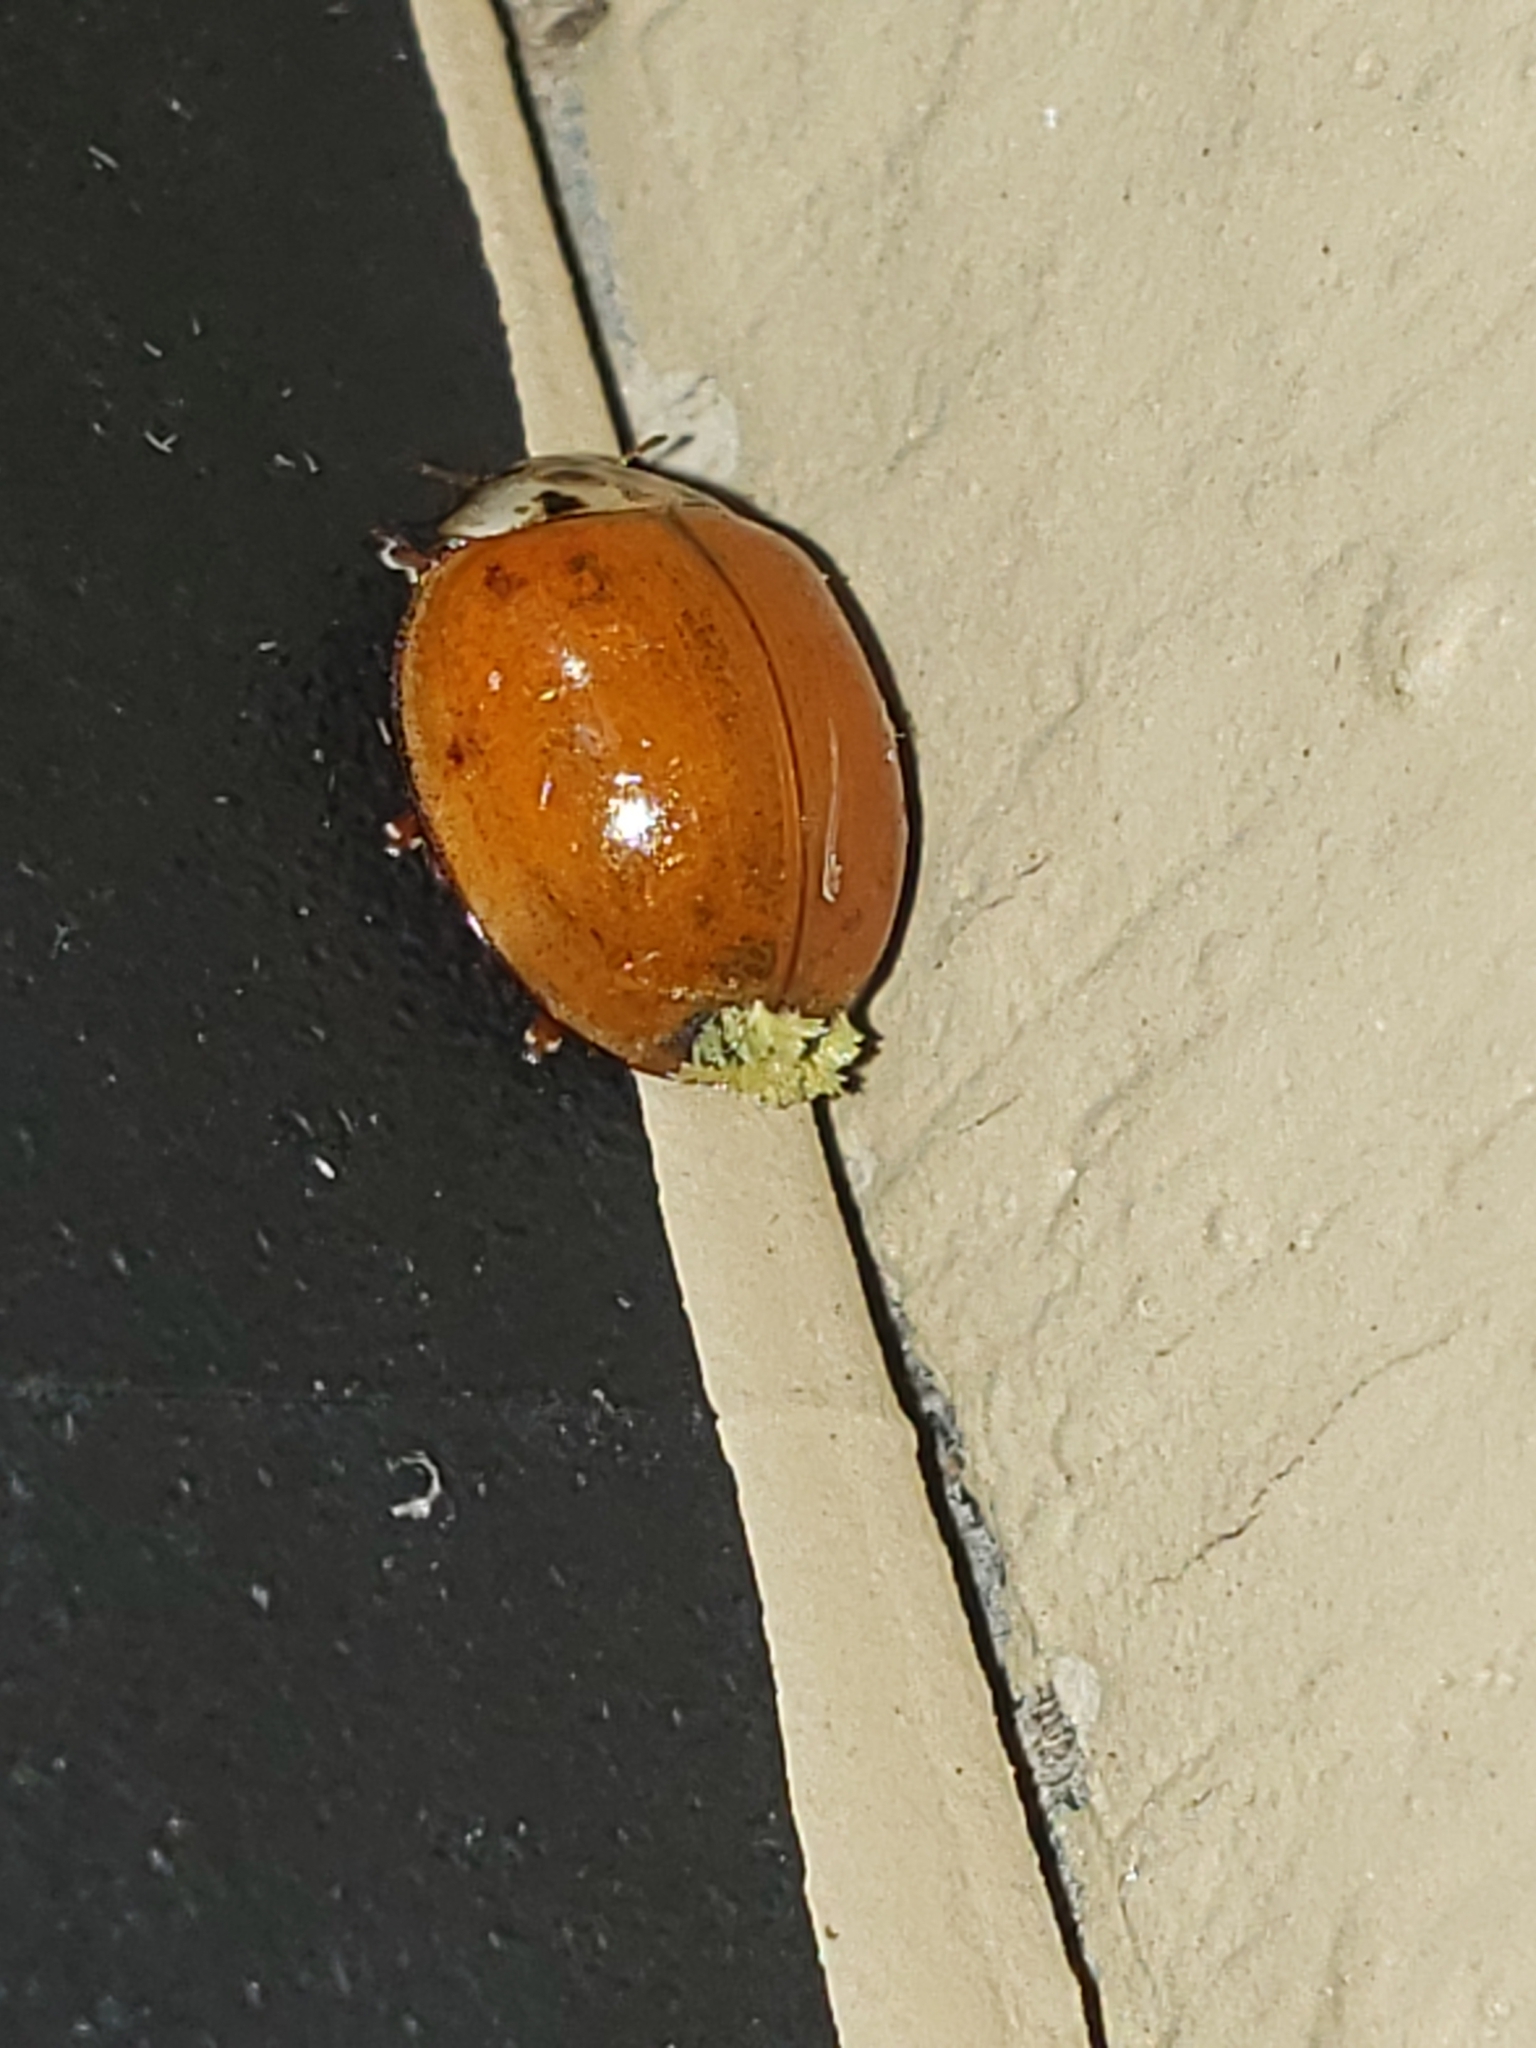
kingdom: Fungi
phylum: Ascomycota
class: Laboulbeniomycetes
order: Laboulbeniales
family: Laboulbeniaceae
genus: Hesperomyces
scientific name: Hesperomyces harmoniae
